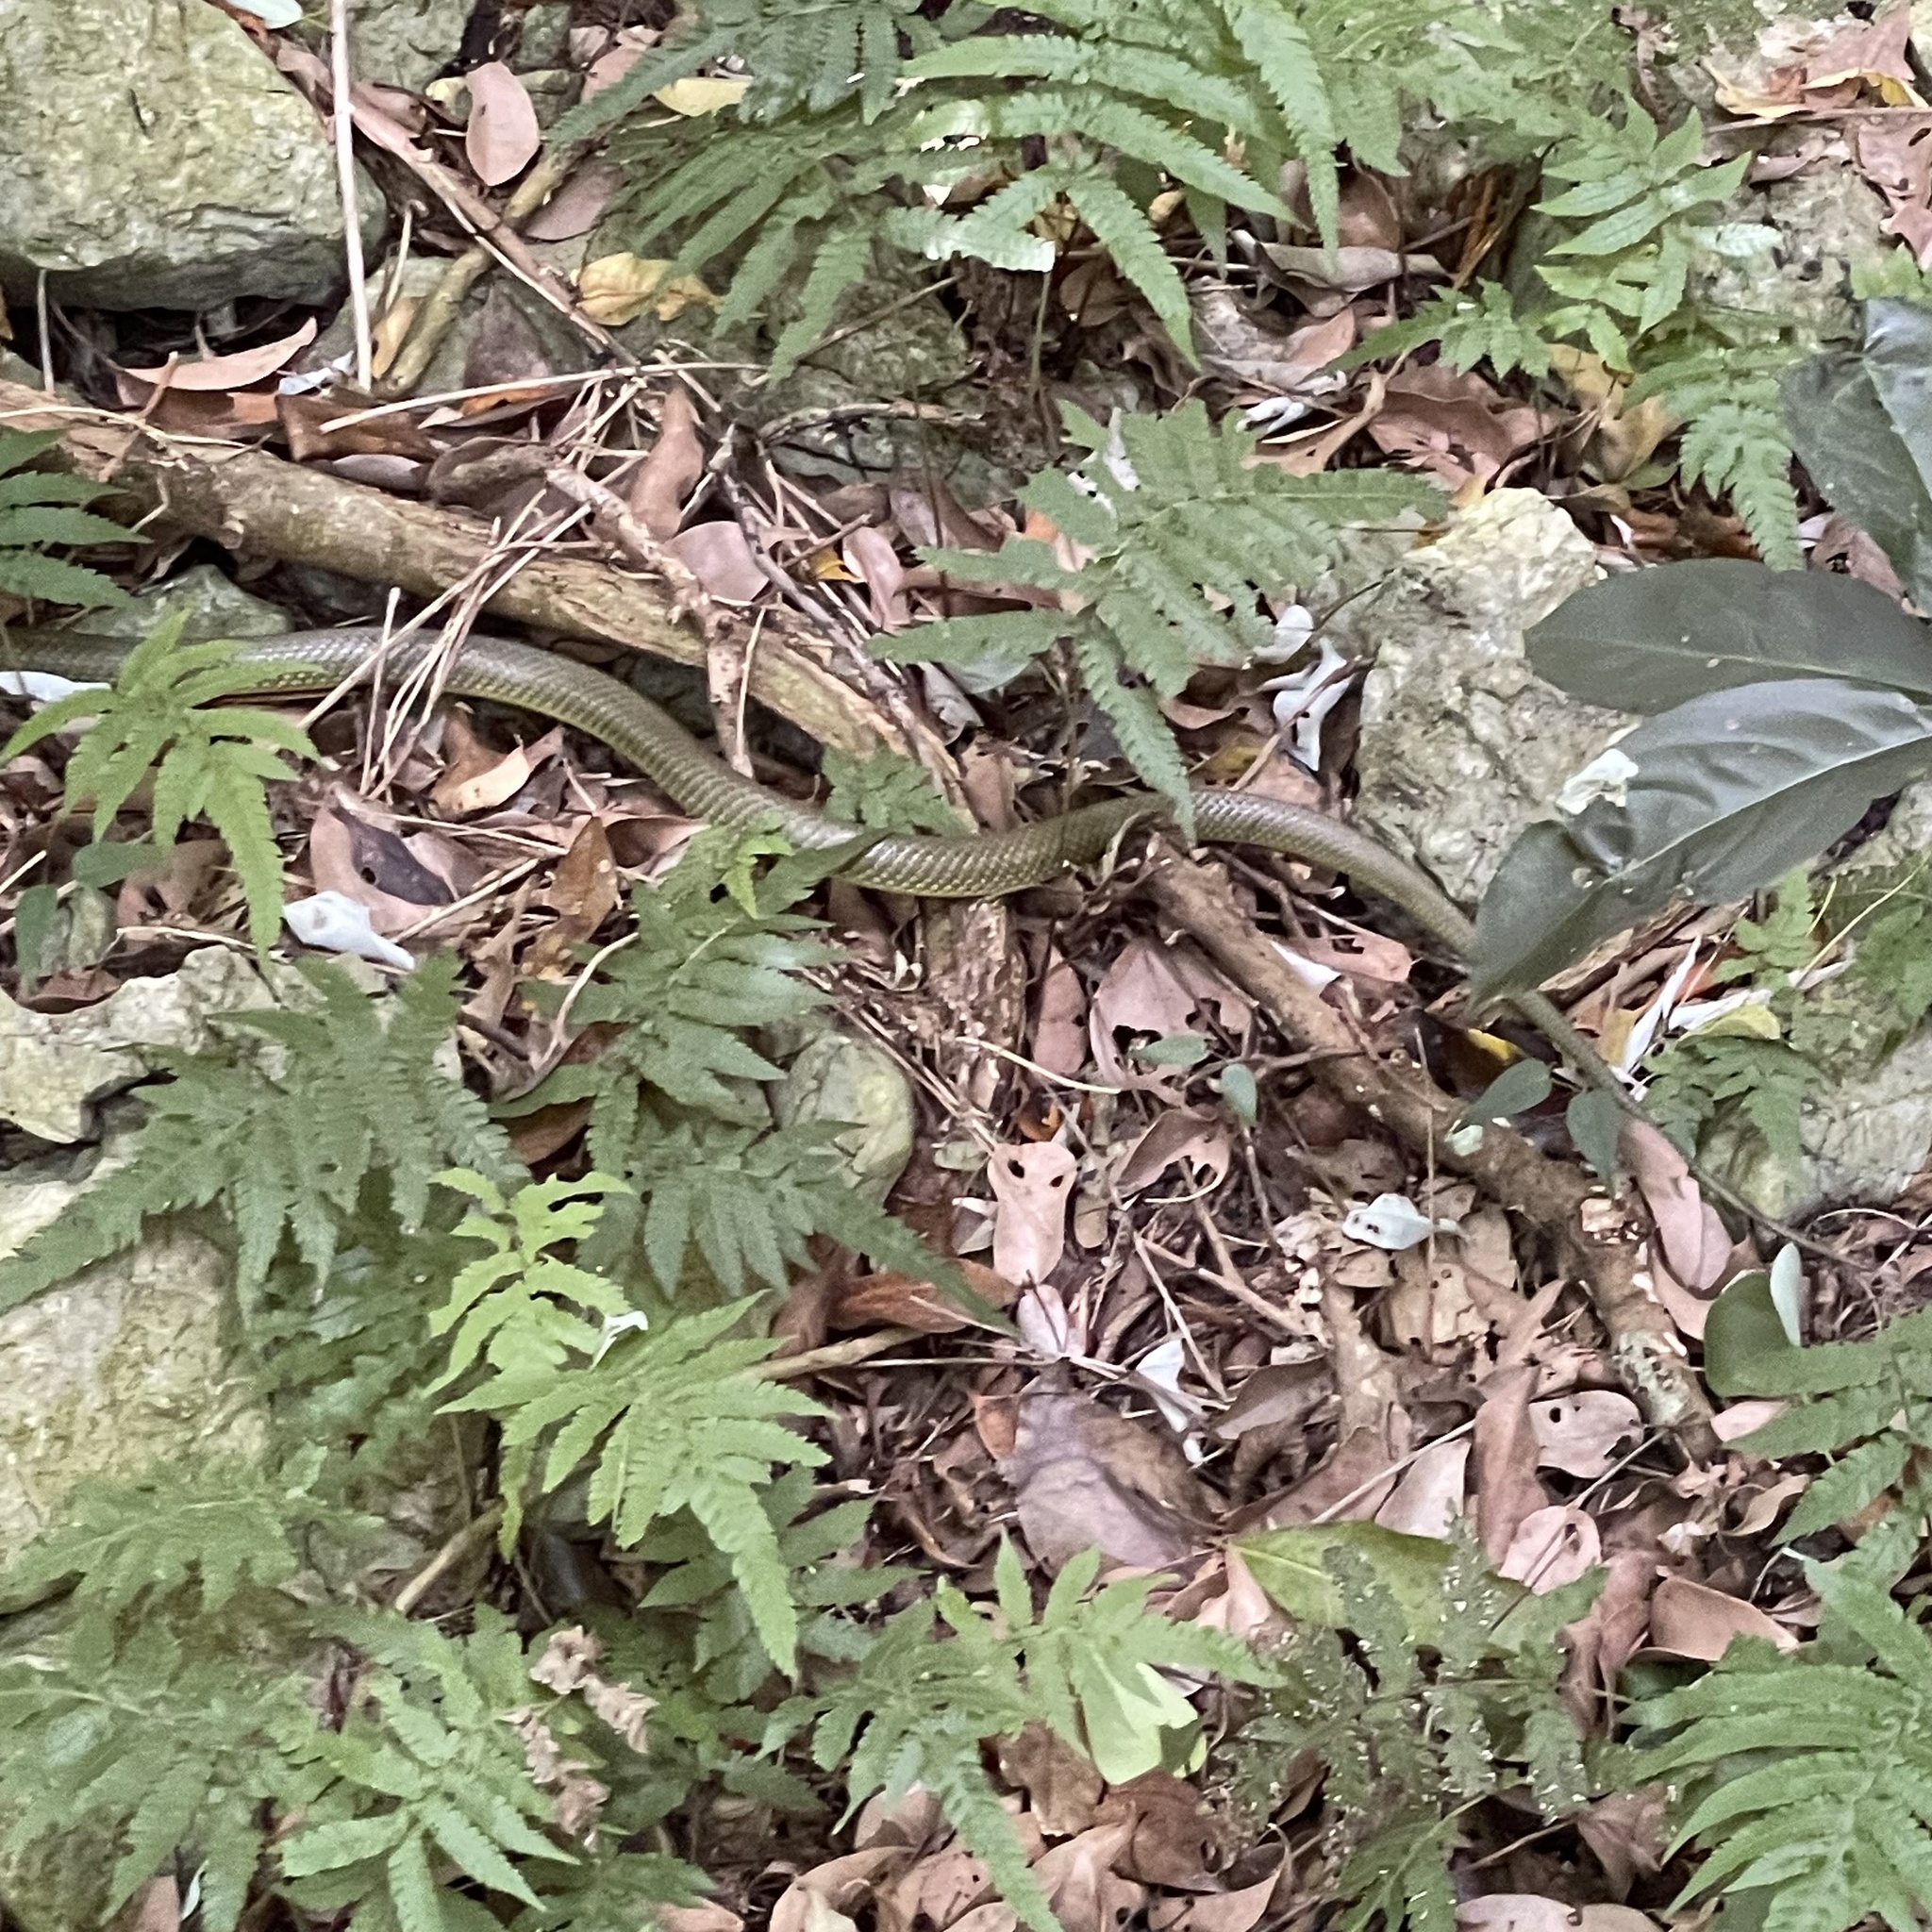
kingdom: Animalia
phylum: Chordata
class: Squamata
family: Colubridae
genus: Ptyas
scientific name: Ptyas semicarinata
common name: Ryukyu green snake
